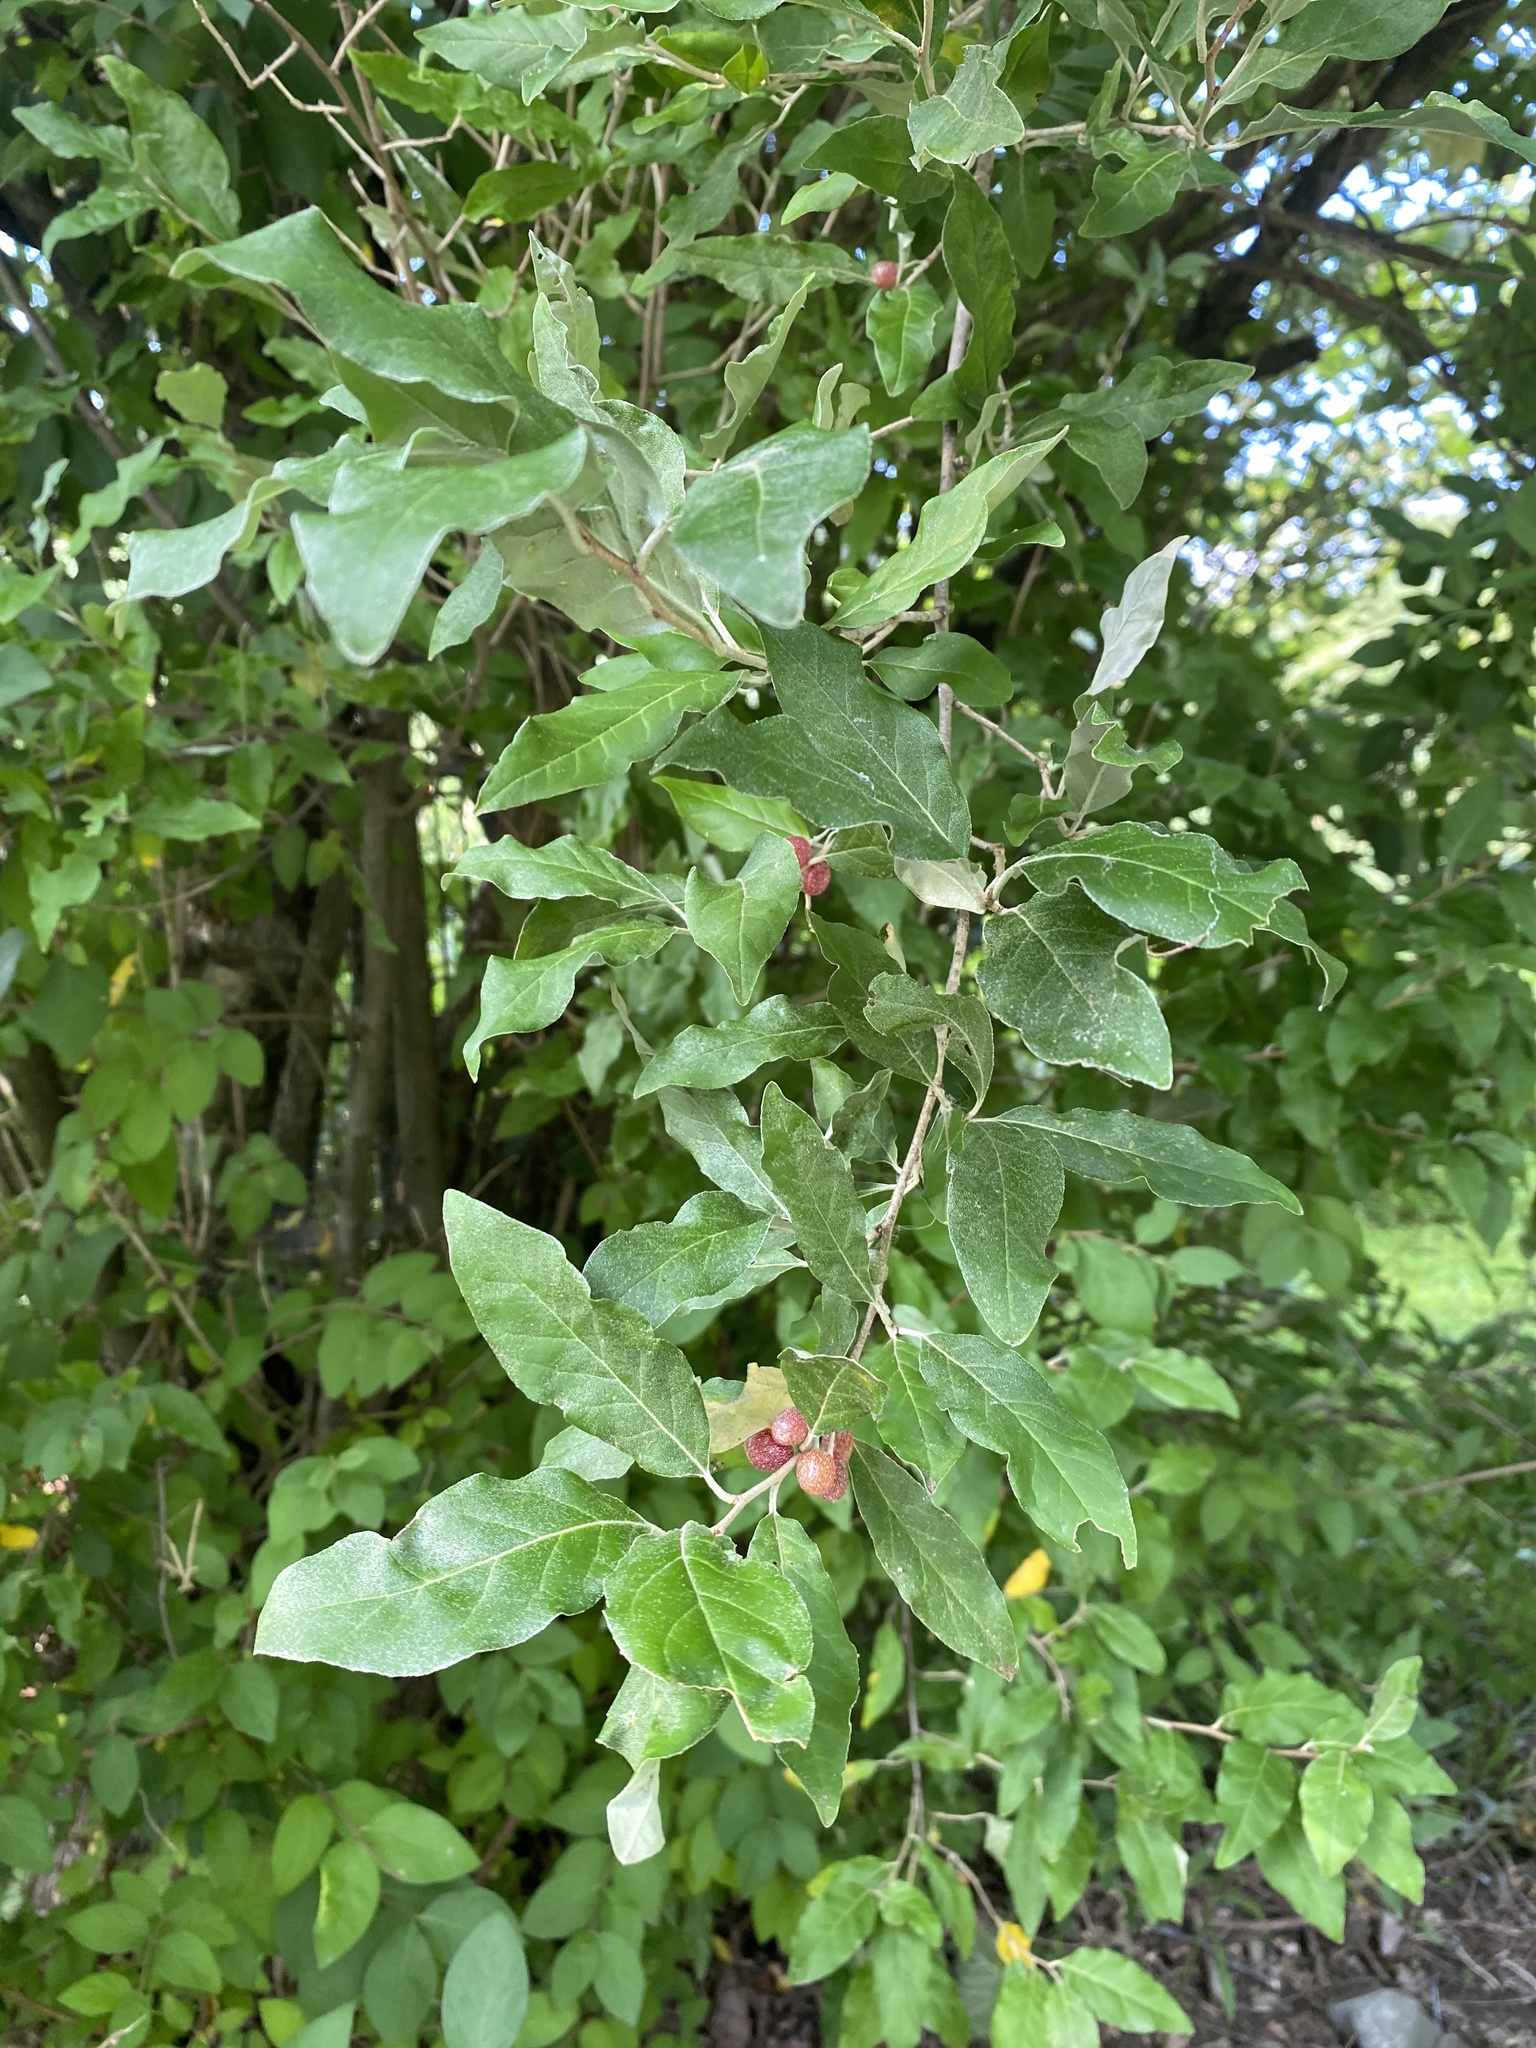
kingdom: Plantae
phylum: Tracheophyta
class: Magnoliopsida
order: Rosales
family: Elaeagnaceae
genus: Elaeagnus
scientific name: Elaeagnus umbellata
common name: Autumn olive
